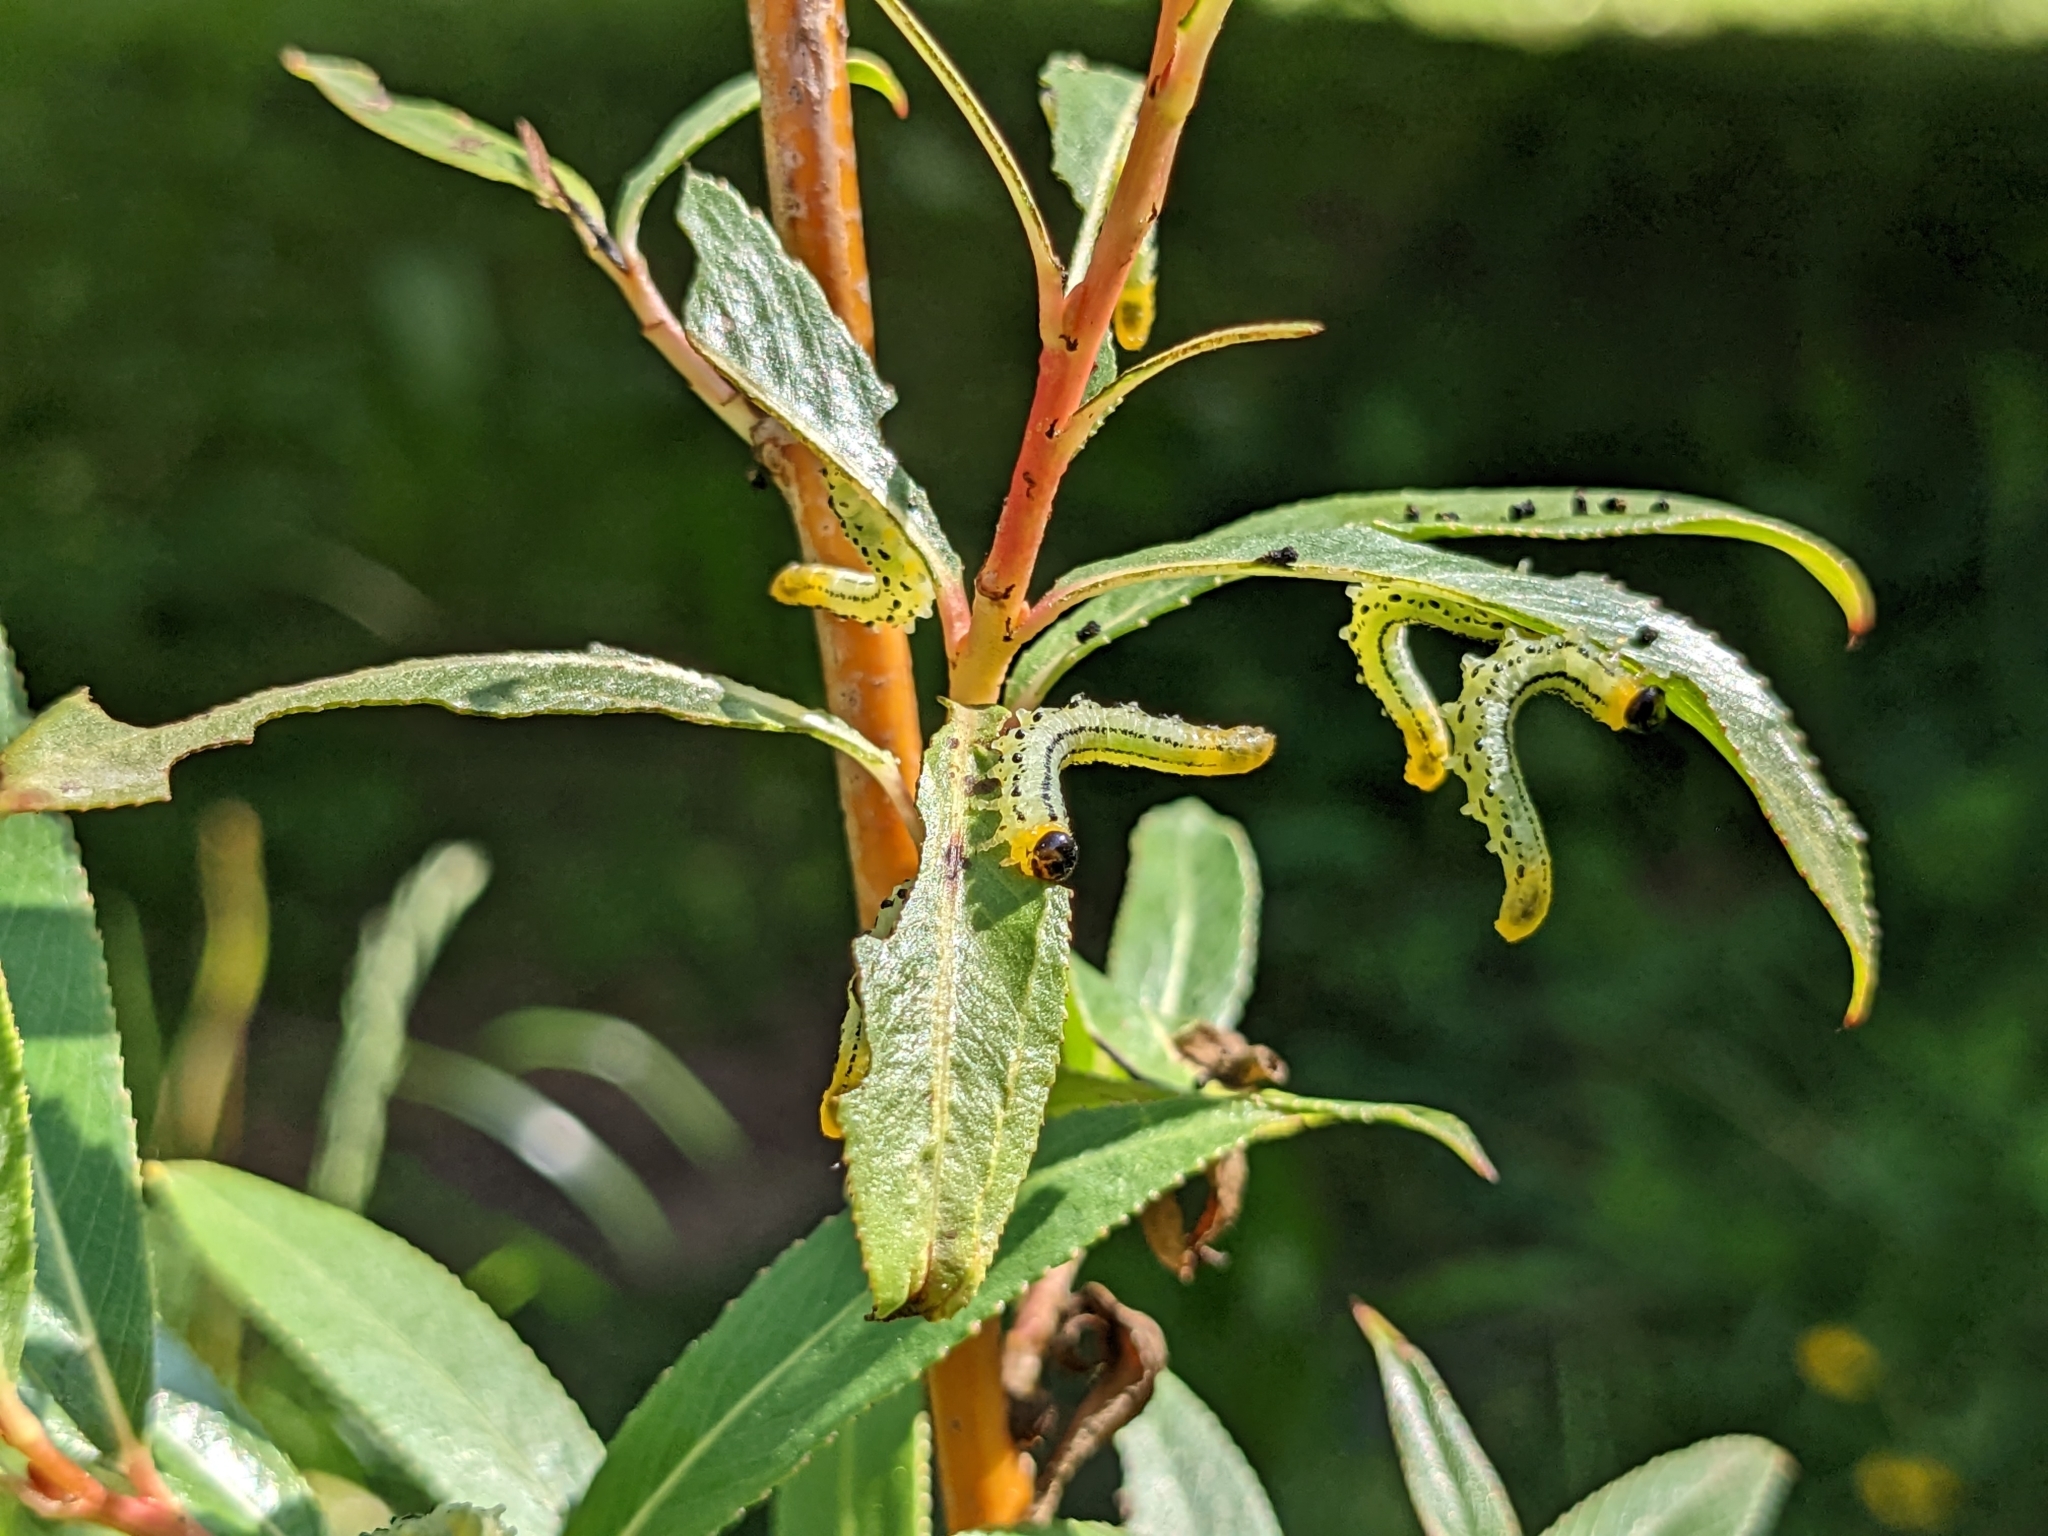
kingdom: Animalia
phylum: Arthropoda
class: Insecta
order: Hymenoptera
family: Tenthredinidae
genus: Nematus
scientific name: Nematus pavidus
